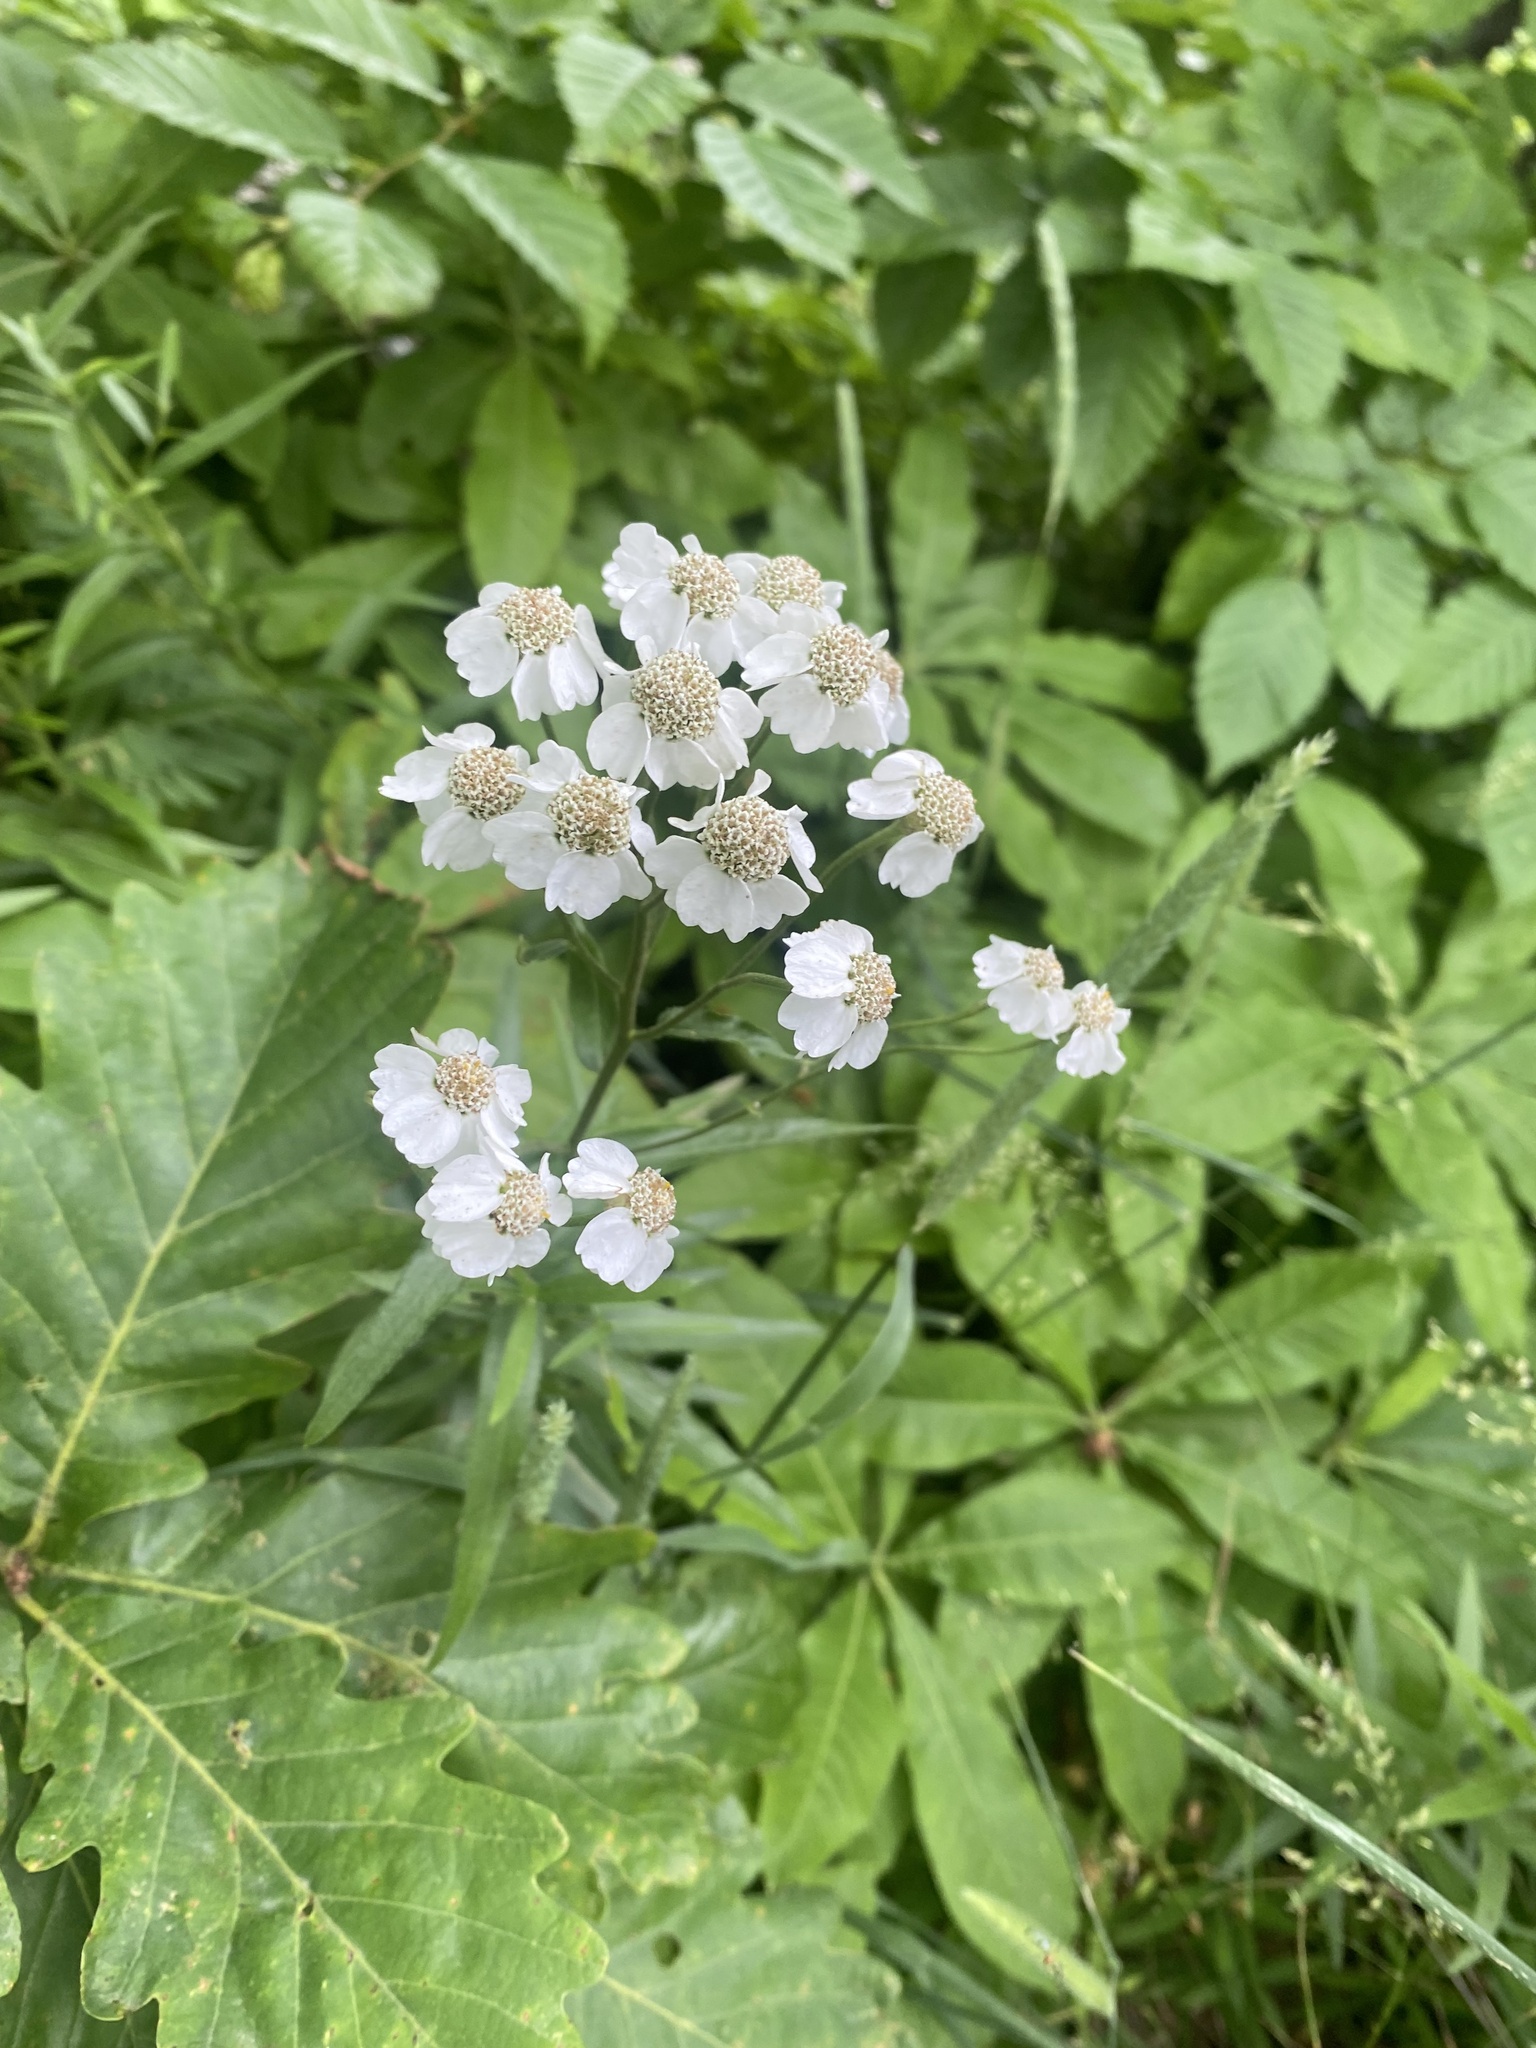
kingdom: Plantae
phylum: Tracheophyta
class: Magnoliopsida
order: Asterales
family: Asteraceae
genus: Achillea
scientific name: Achillea biserrata
